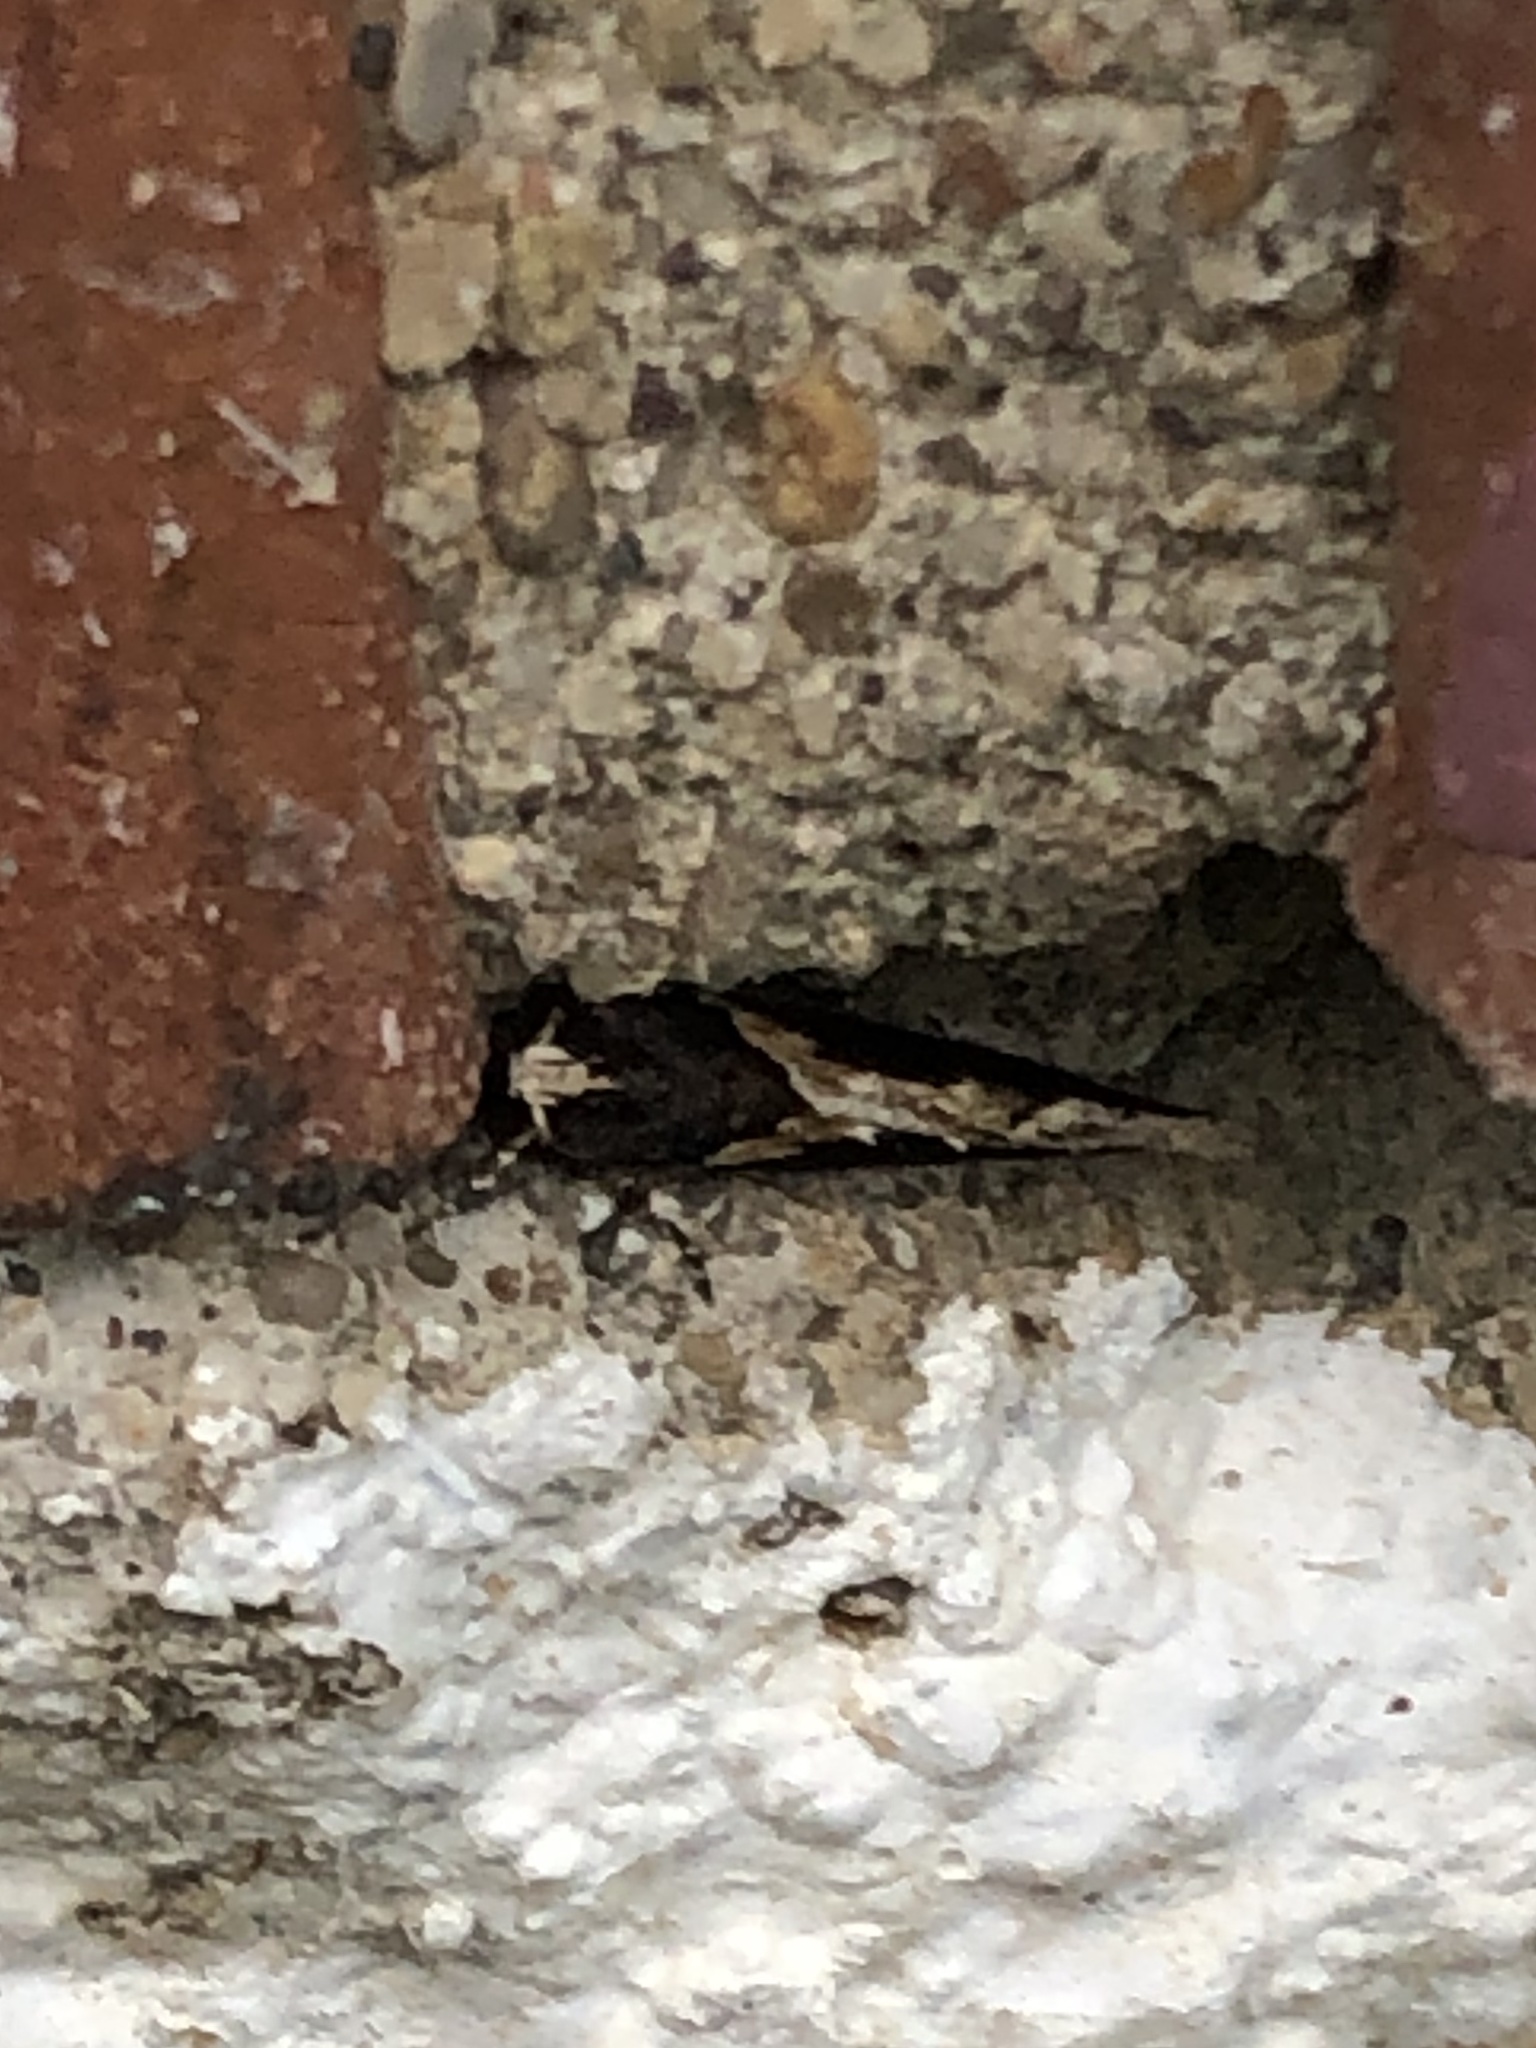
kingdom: Animalia
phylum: Arthropoda
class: Insecta
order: Lepidoptera
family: Gelechiidae
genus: Telphusa
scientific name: Telphusa longifasciella
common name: Y-backed telphusa
